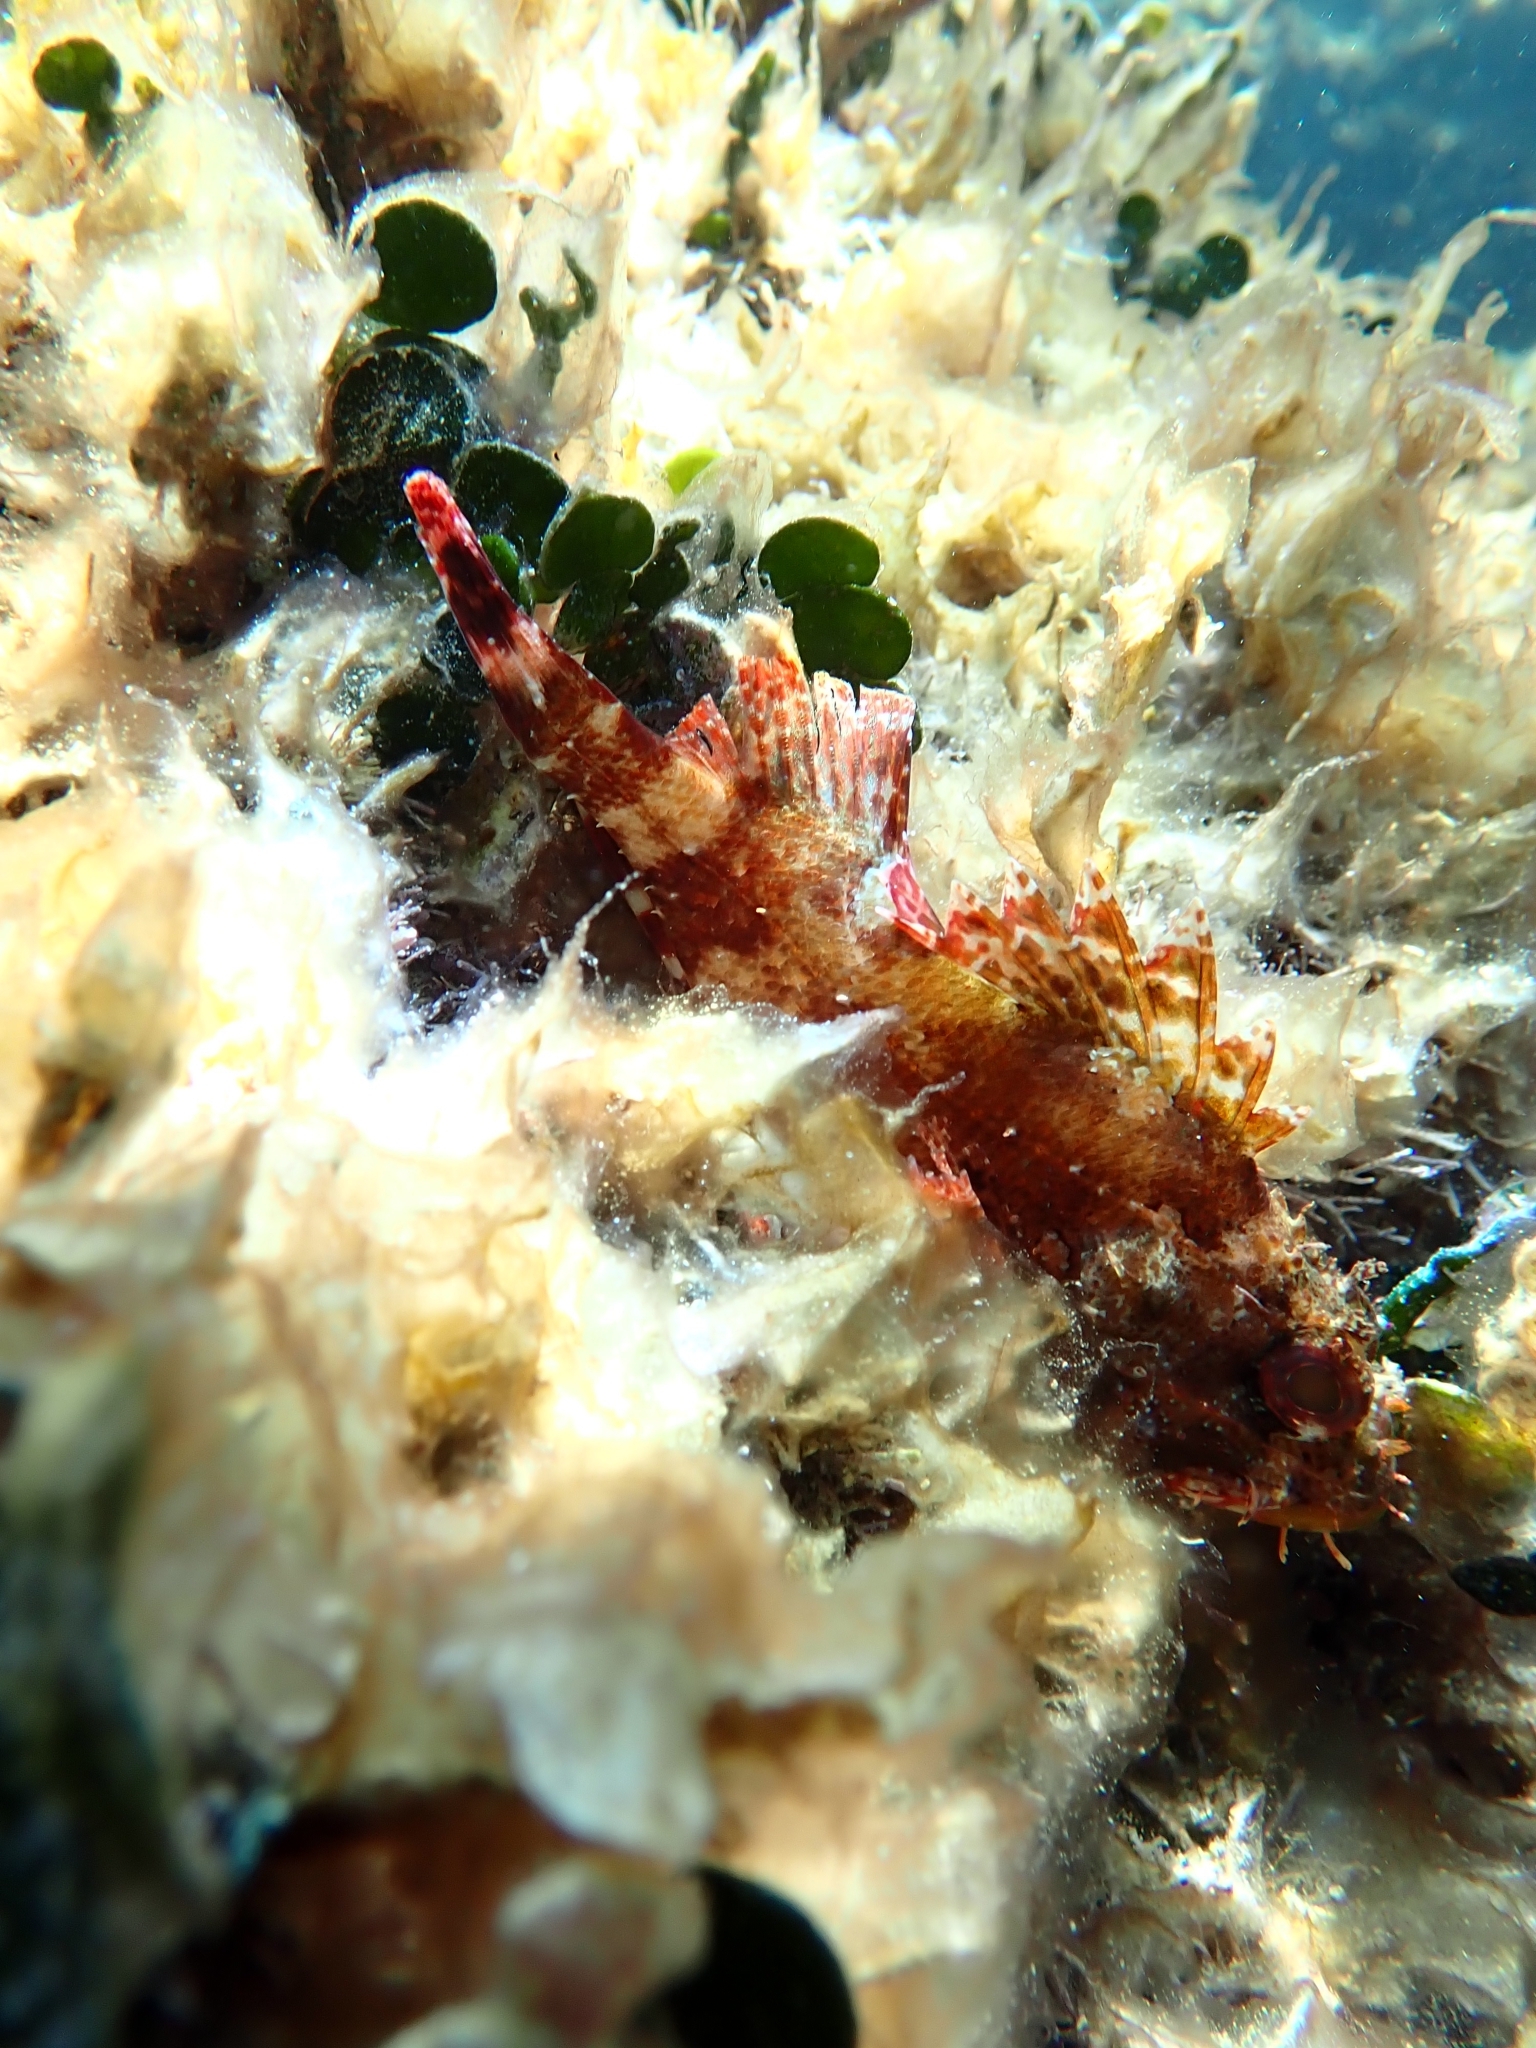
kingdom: Animalia
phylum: Chordata
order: Scorpaeniformes
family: Scorpaenidae
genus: Scorpaena
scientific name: Scorpaena maderensis
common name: Madeira rockfish
